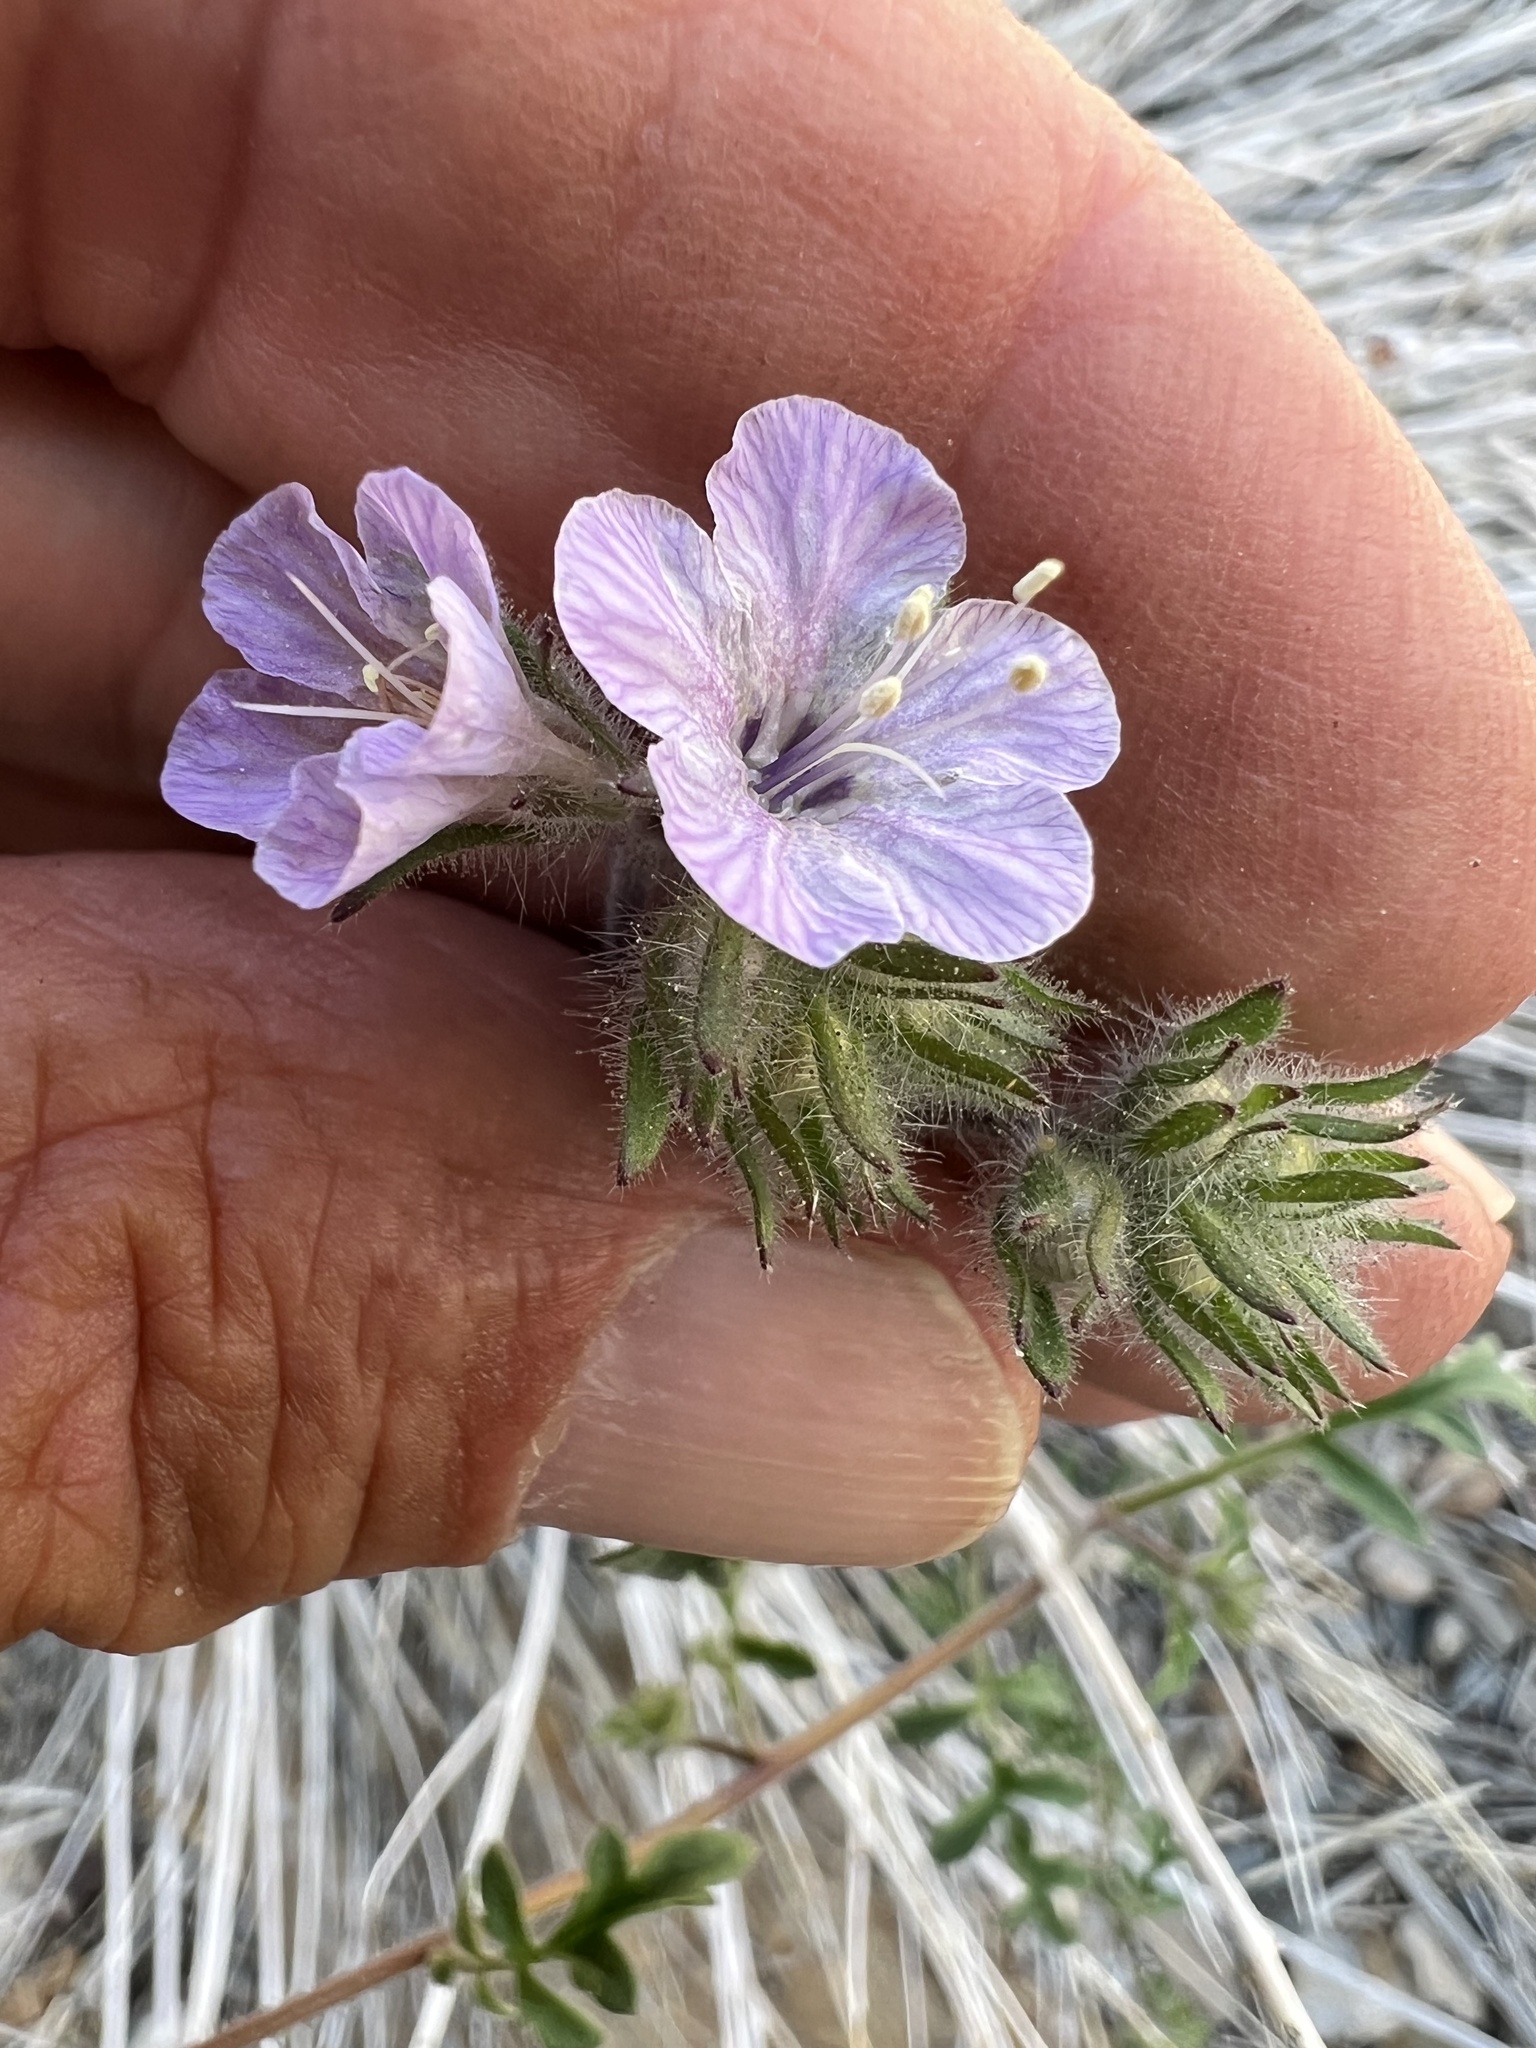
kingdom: Plantae
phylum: Tracheophyta
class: Magnoliopsida
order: Boraginales
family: Hydrophyllaceae
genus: Phacelia
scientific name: Phacelia vallis-mortae
